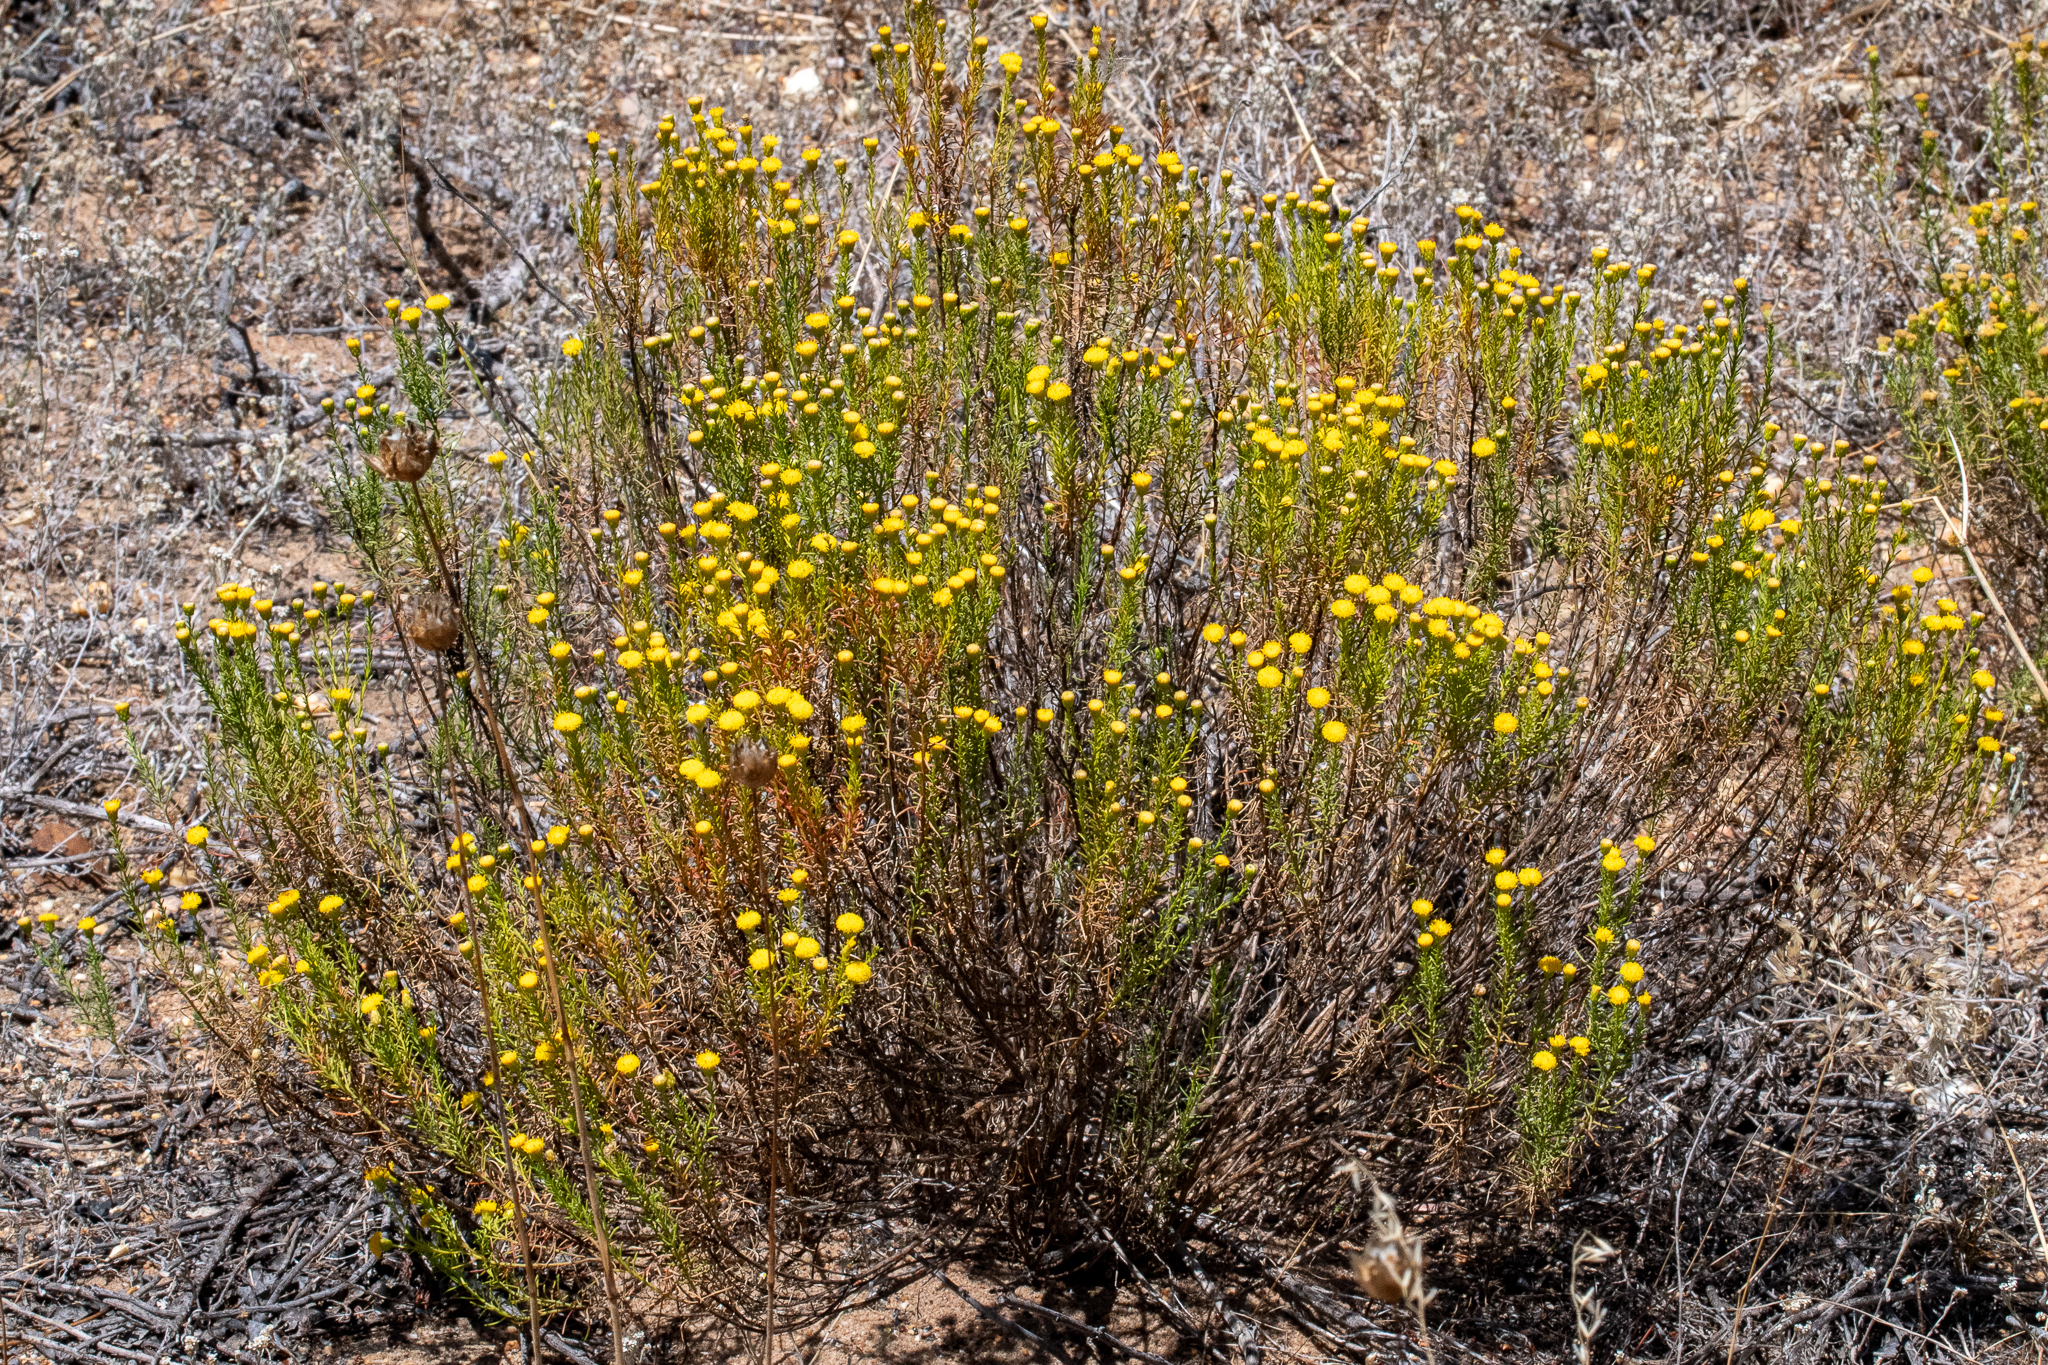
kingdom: Plantae
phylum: Tracheophyta
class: Magnoliopsida
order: Asterales
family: Asteraceae
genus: Chrysocoma
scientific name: Chrysocoma ciliata
